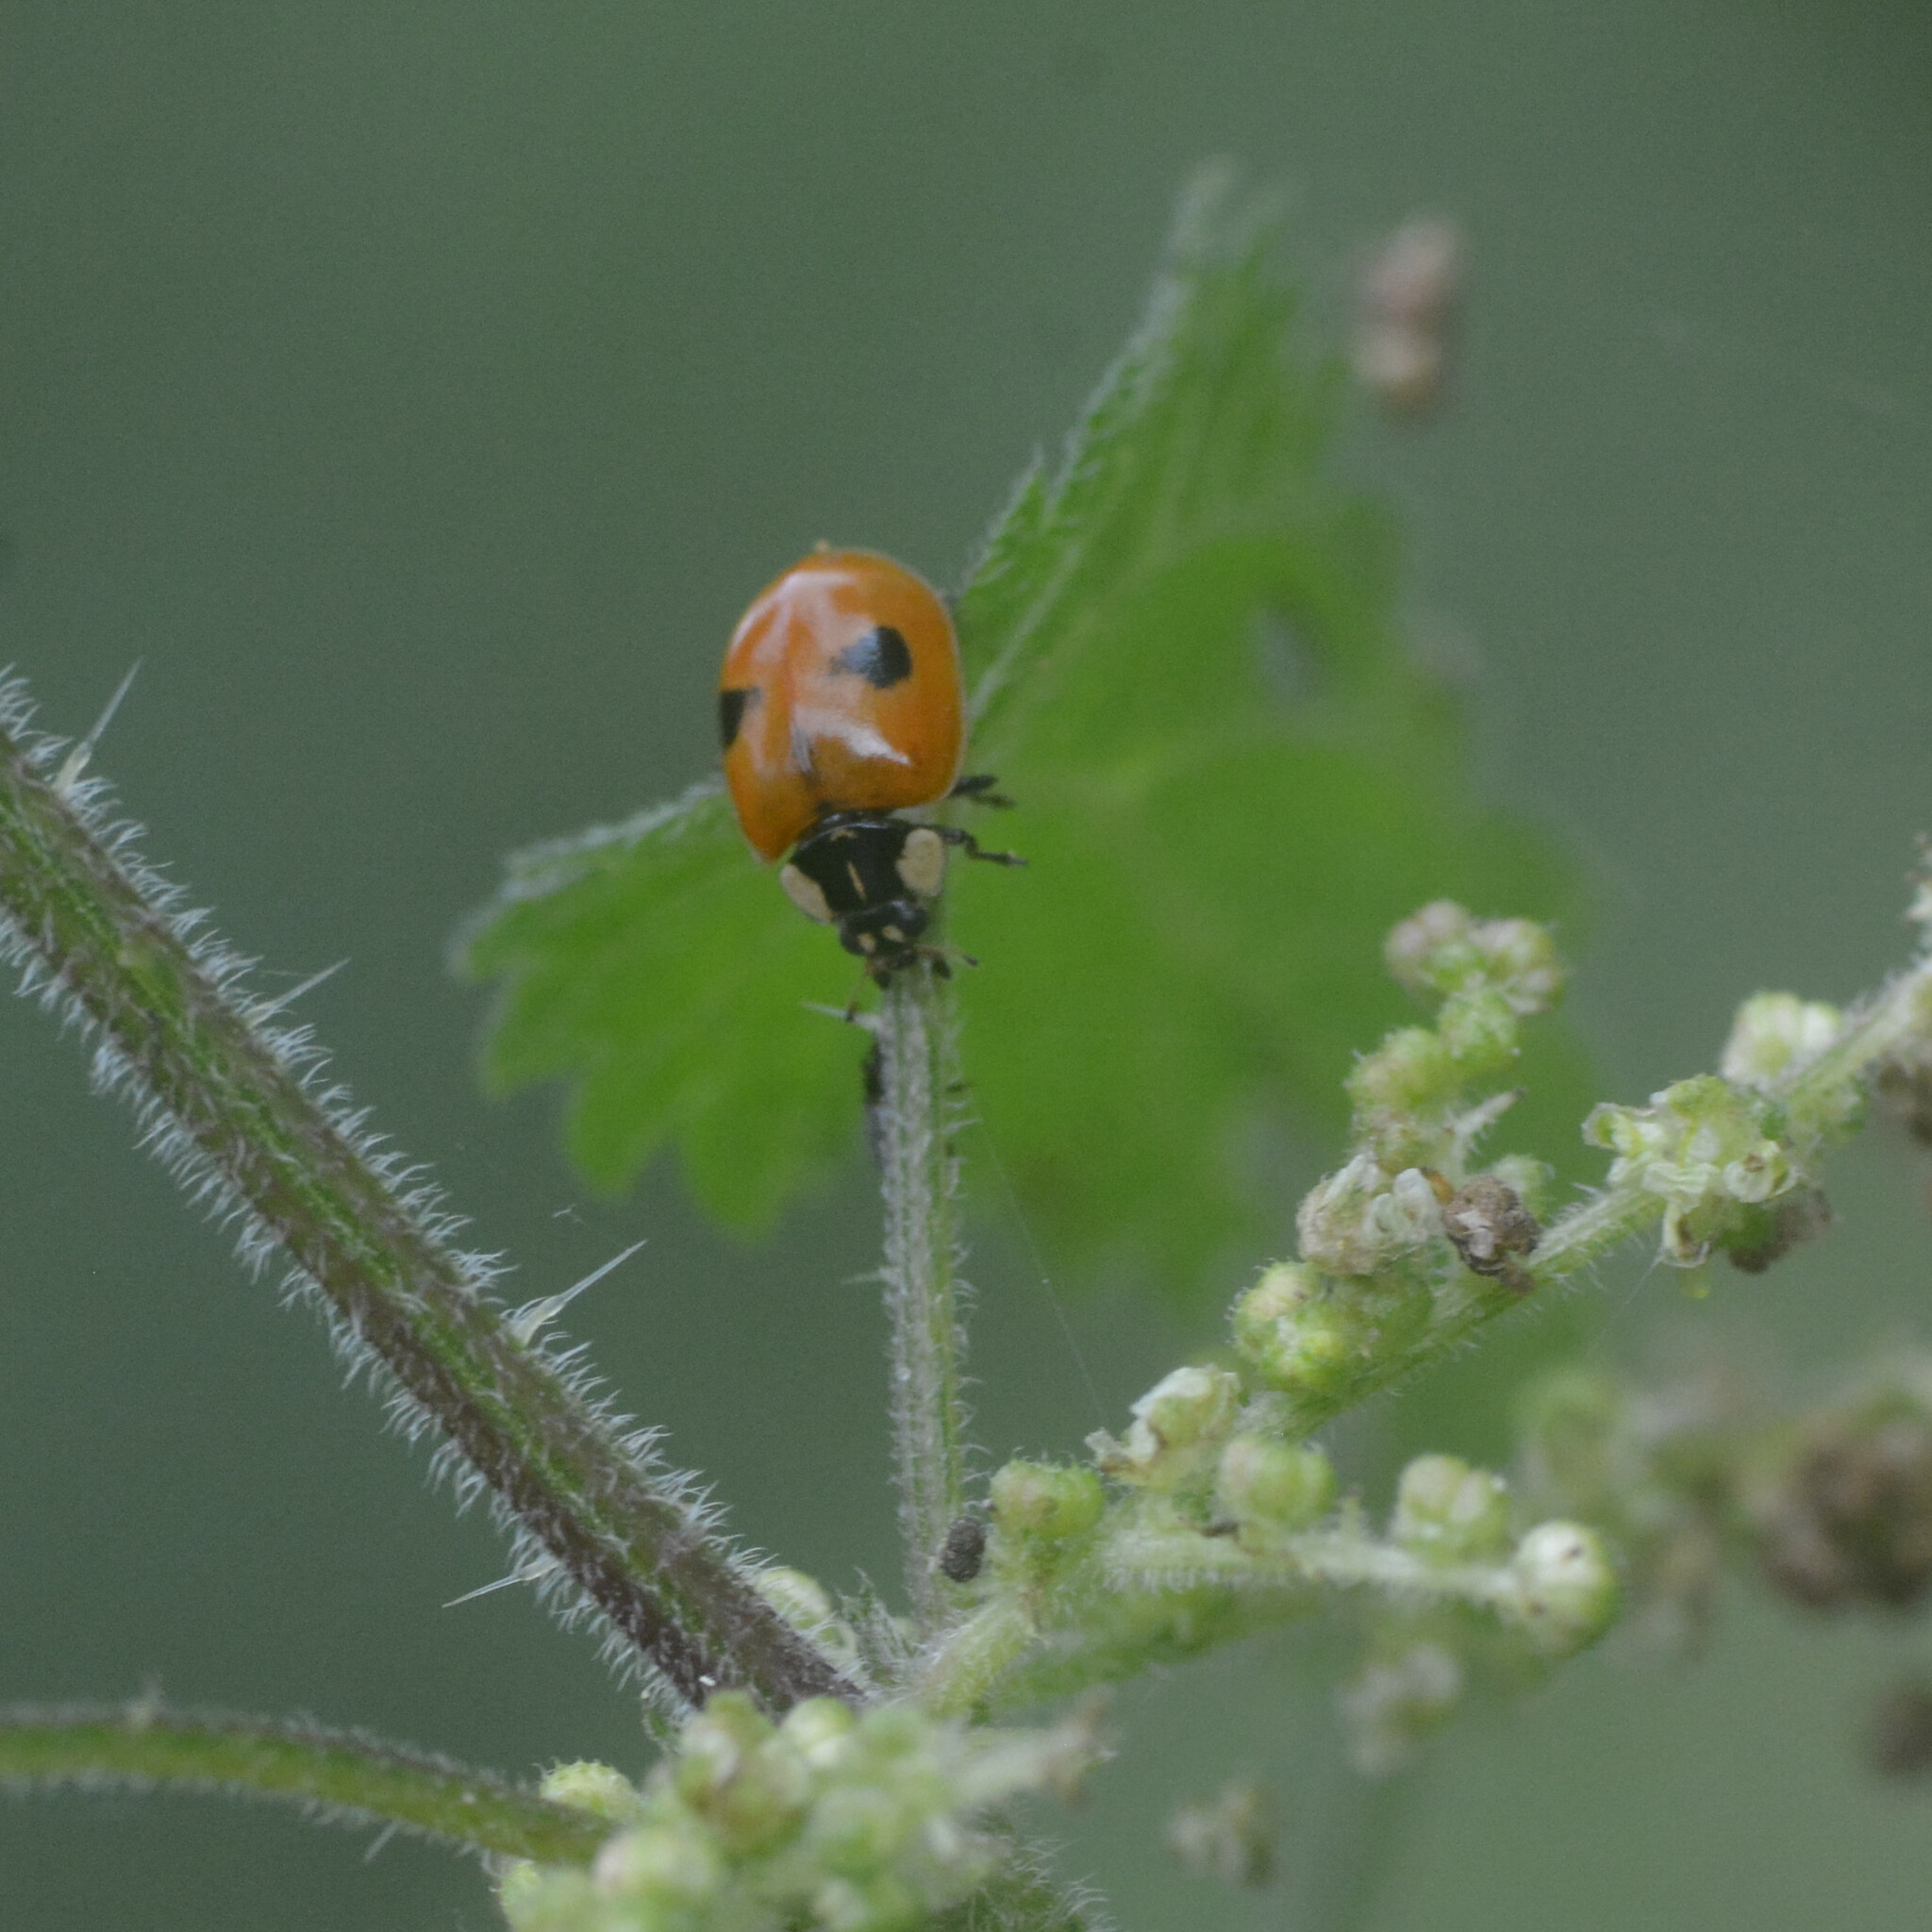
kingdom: Animalia
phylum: Arthropoda
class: Insecta
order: Coleoptera
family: Coccinellidae
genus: Adalia
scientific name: Adalia bipunctata
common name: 2-spot ladybird
